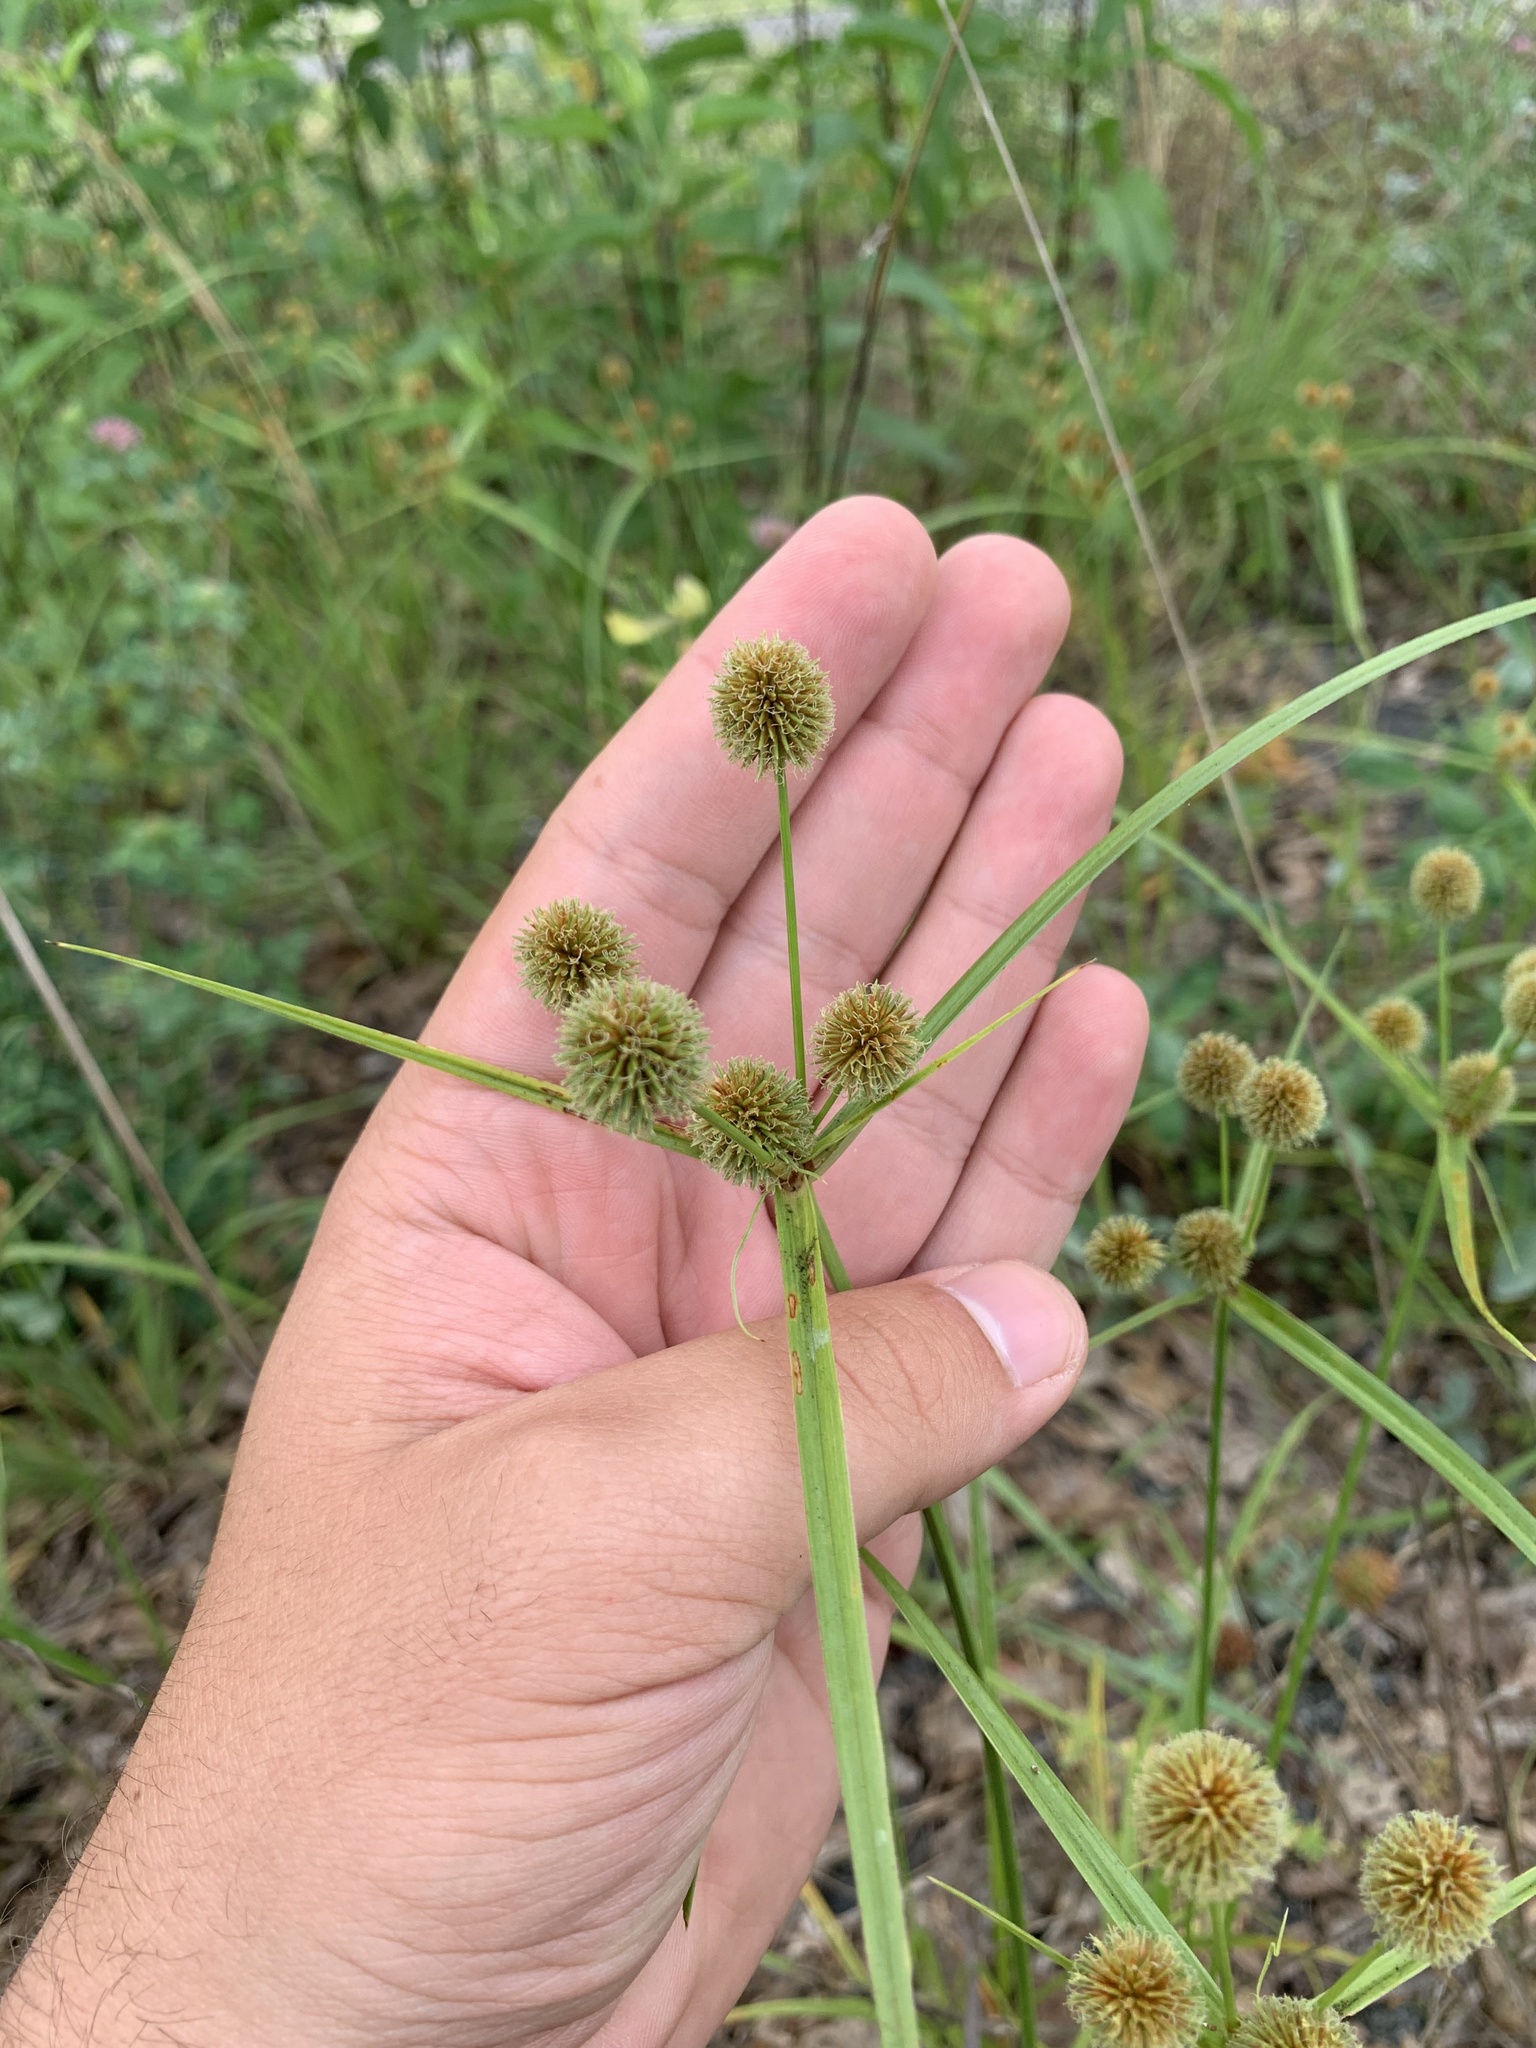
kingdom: Plantae
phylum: Tracheophyta
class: Liliopsida
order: Poales
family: Cyperaceae
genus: Cyperus
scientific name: Cyperus echinatus
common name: Teasel sedge
